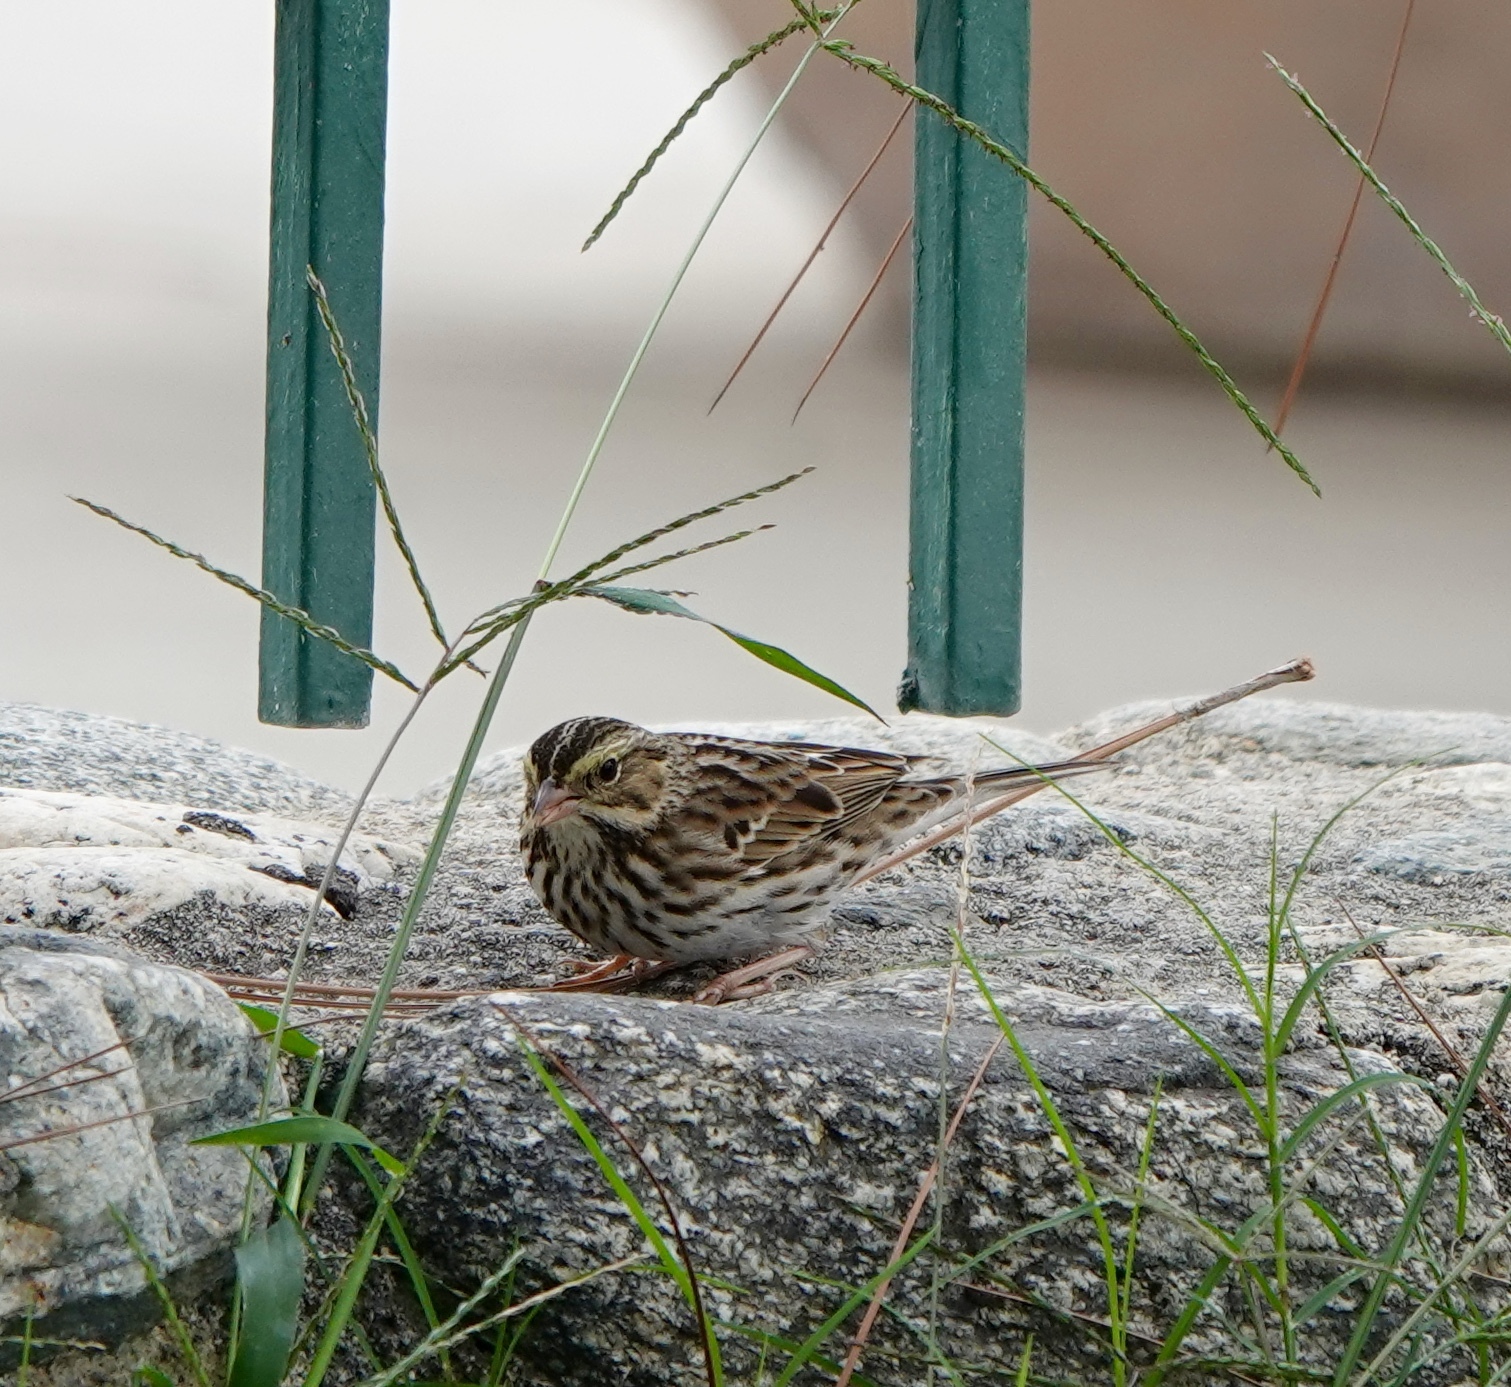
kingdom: Animalia
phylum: Chordata
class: Aves
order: Passeriformes
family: Passerellidae
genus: Passerculus
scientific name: Passerculus sandwichensis
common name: Savannah sparrow
